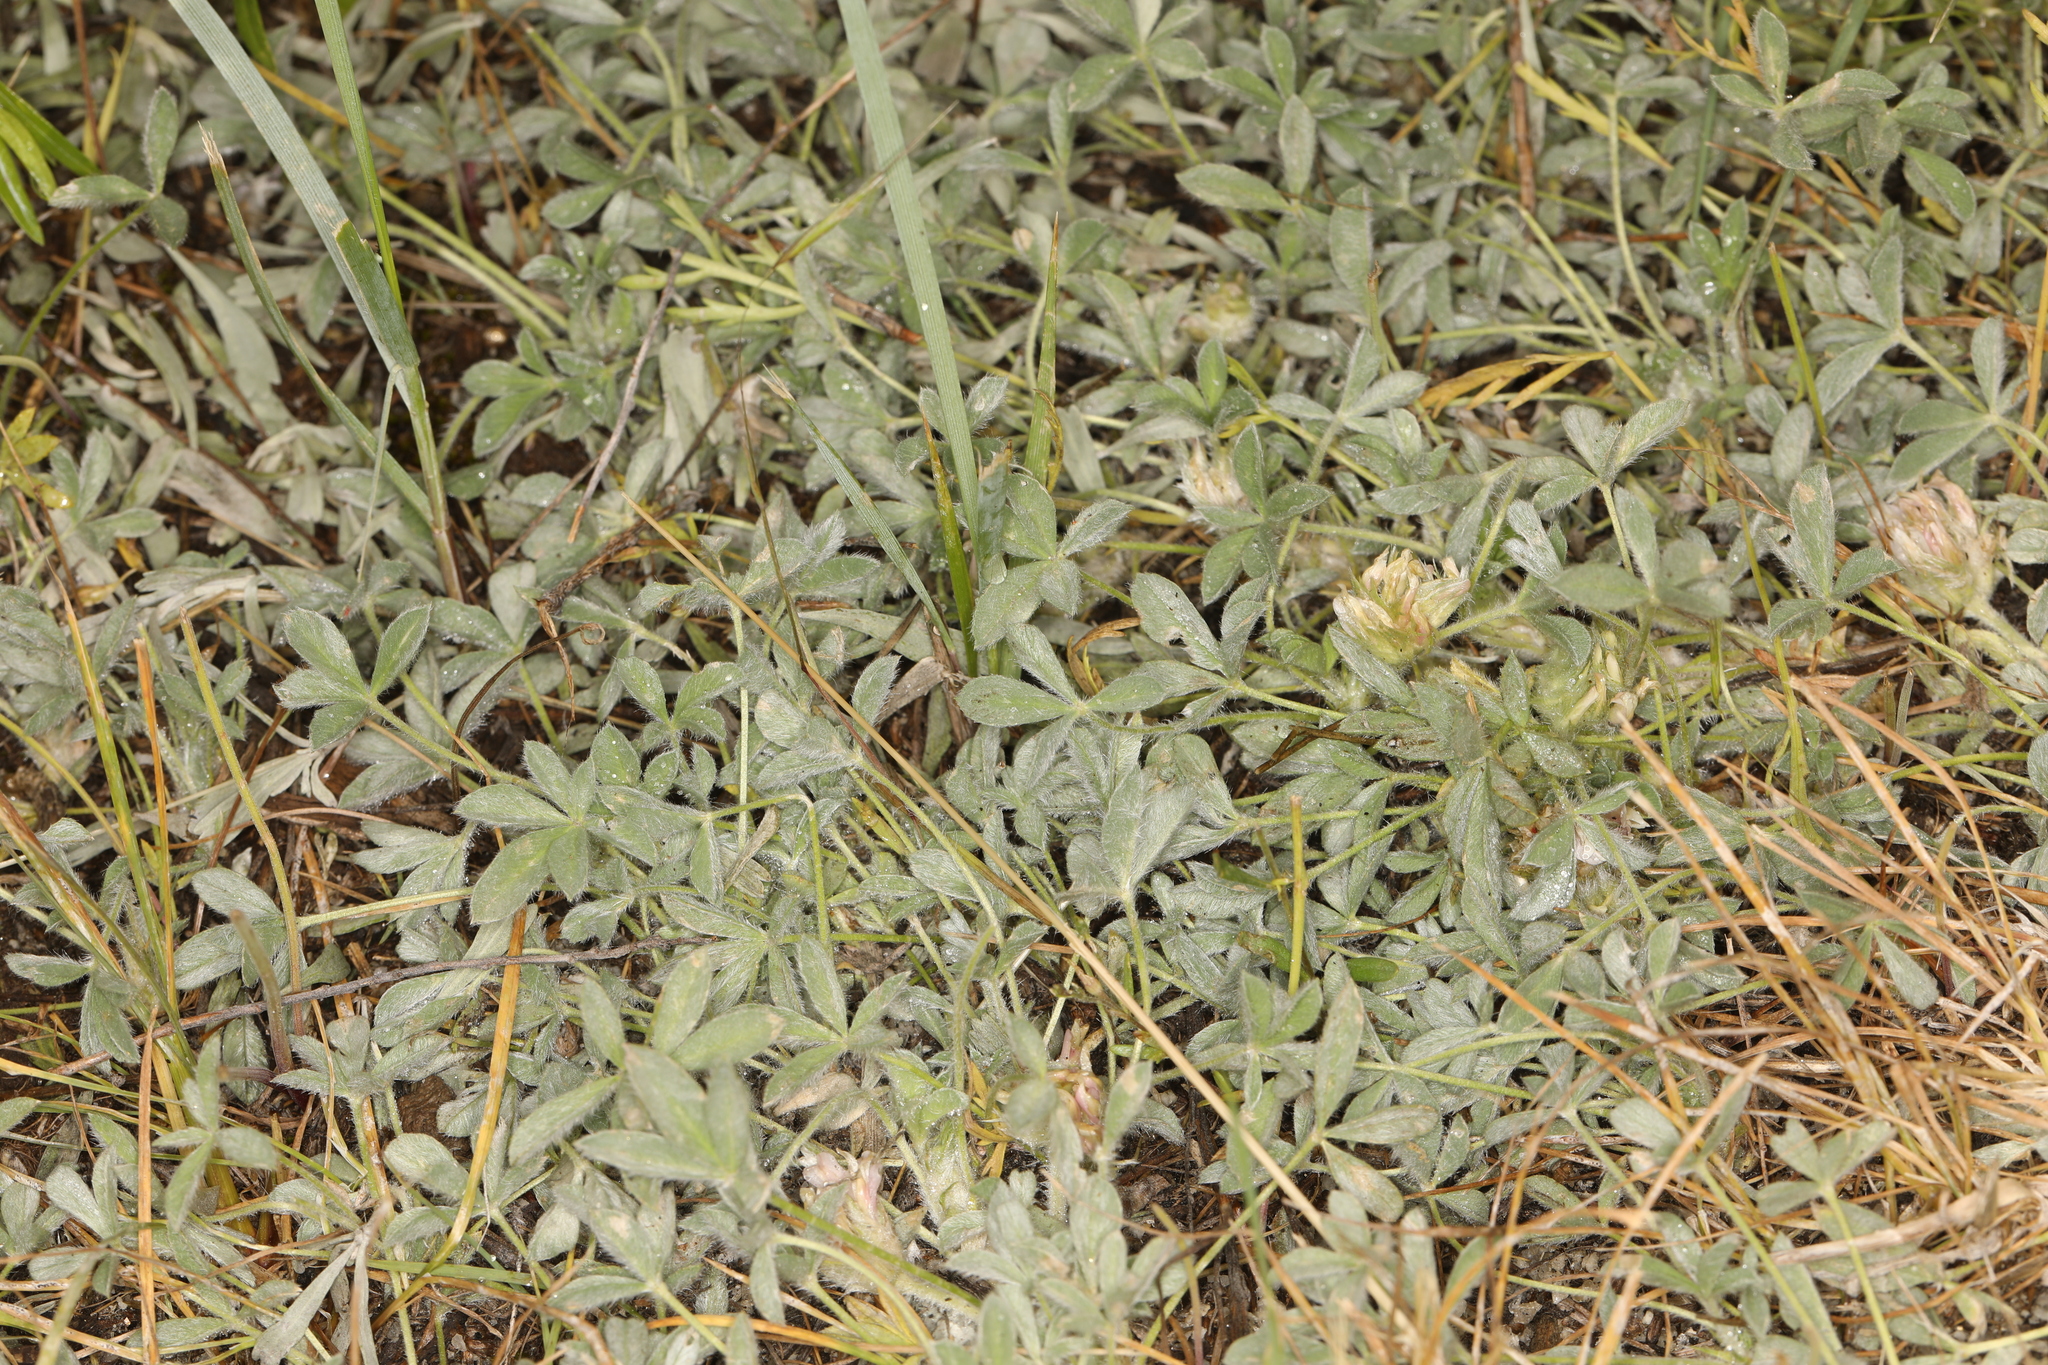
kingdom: Plantae
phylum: Tracheophyta
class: Magnoliopsida
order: Fabales
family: Fabaceae
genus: Trifolium
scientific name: Trifolium andersonii
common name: Anderson's clover
